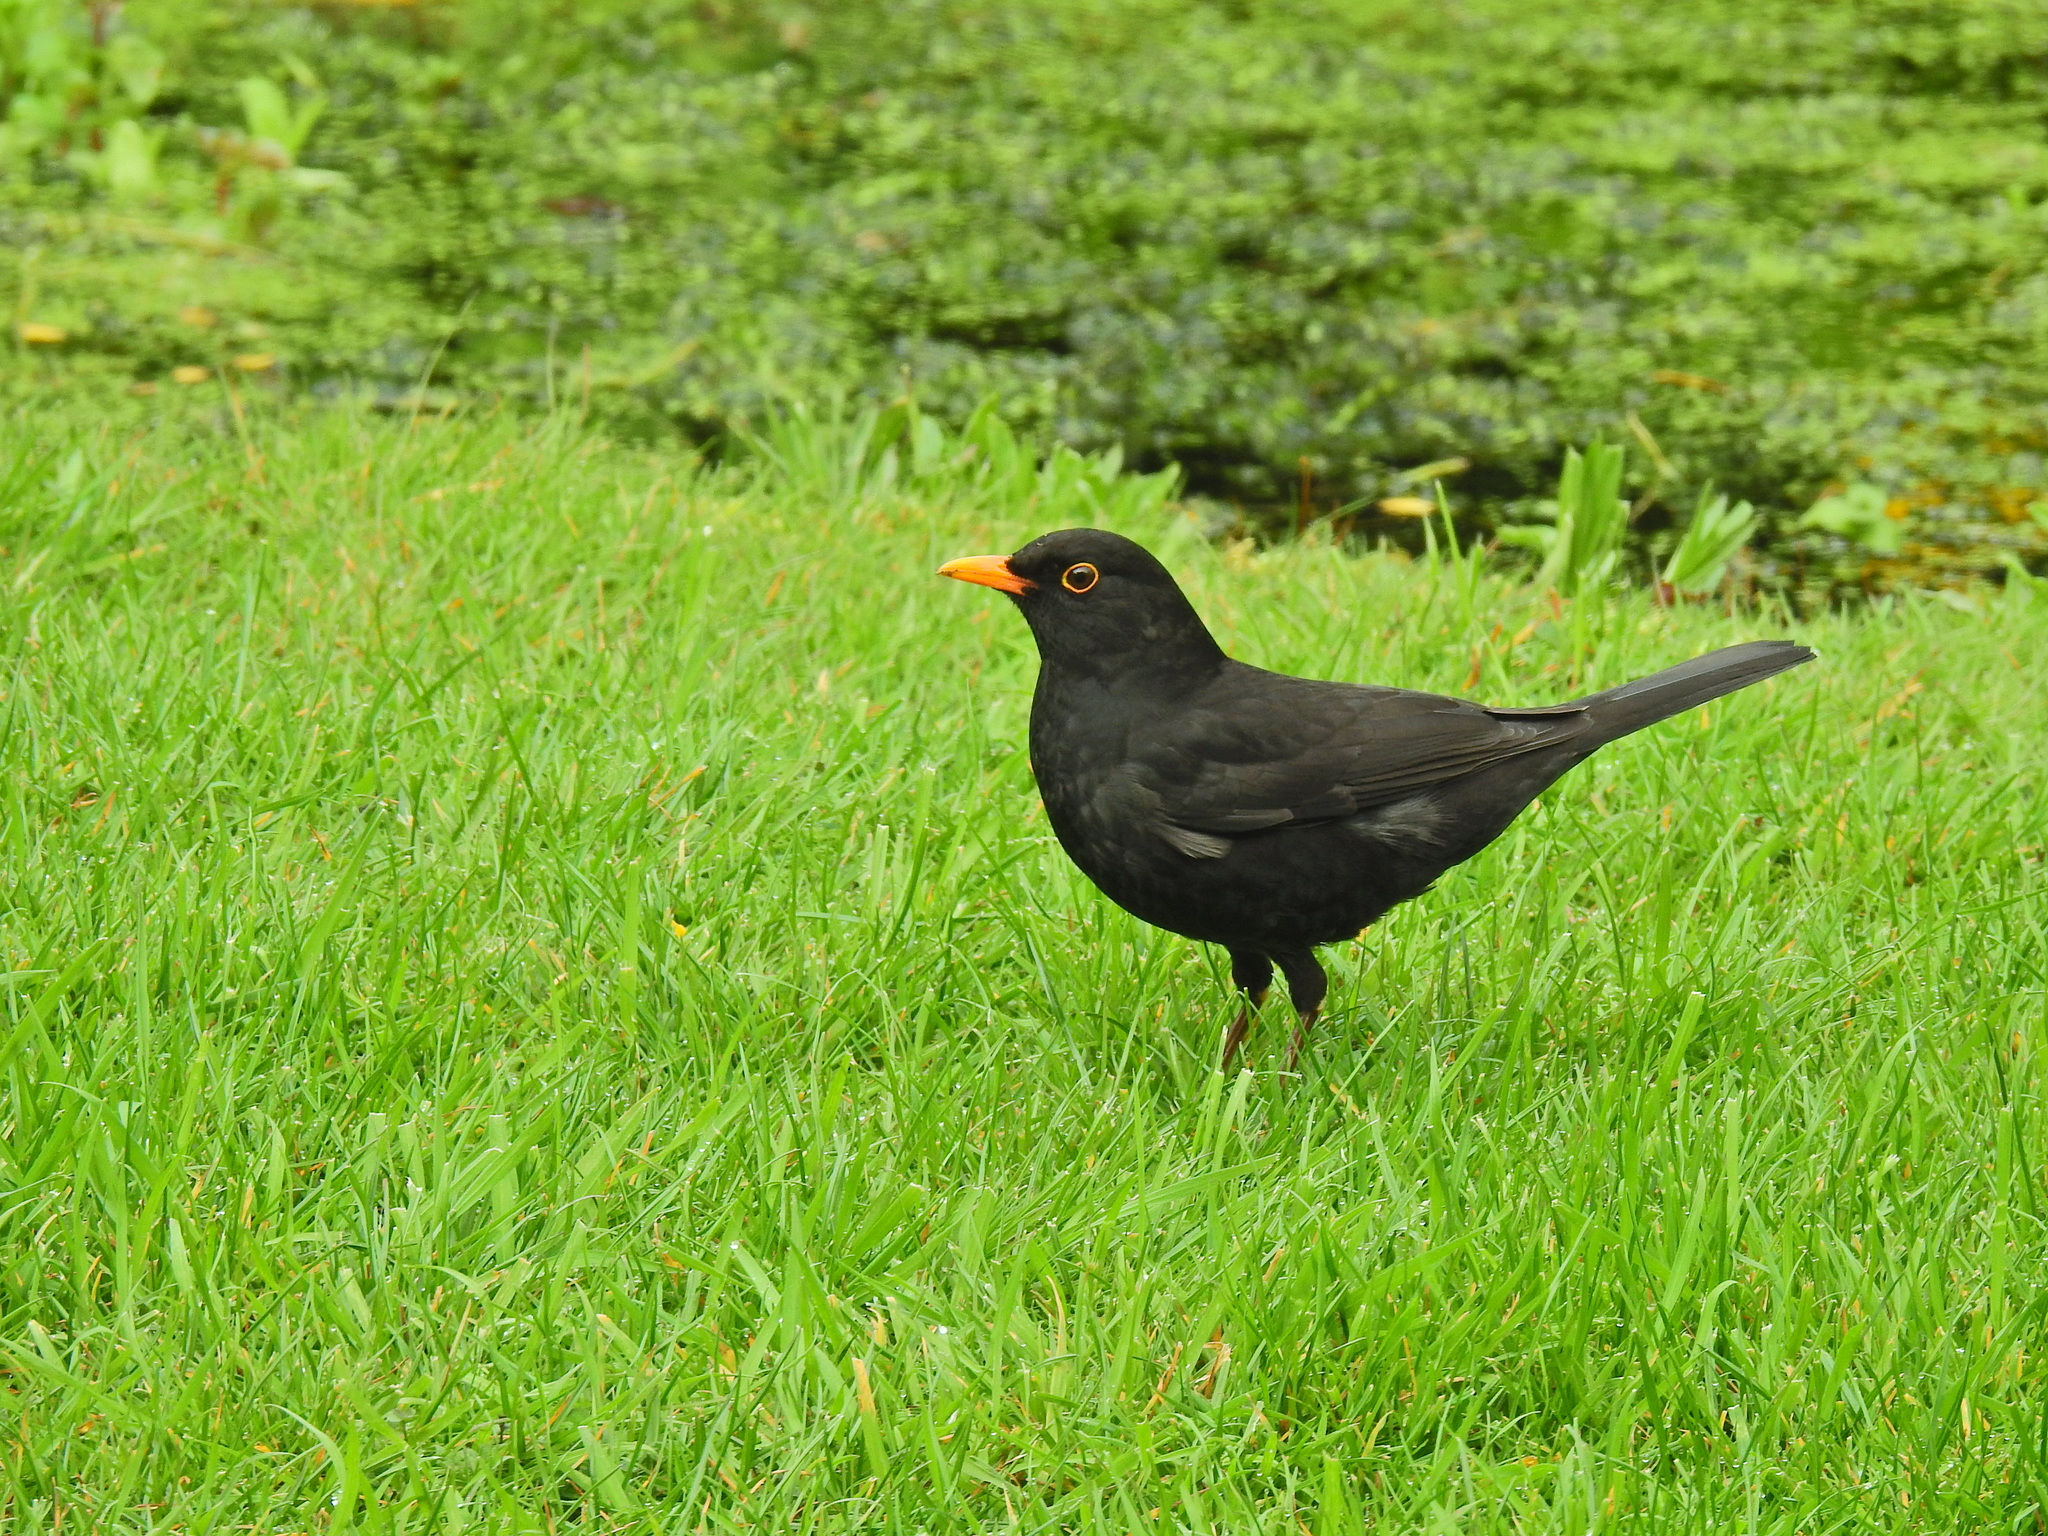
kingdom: Animalia
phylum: Chordata
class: Aves
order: Passeriformes
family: Turdidae
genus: Turdus
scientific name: Turdus merula
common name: Common blackbird
